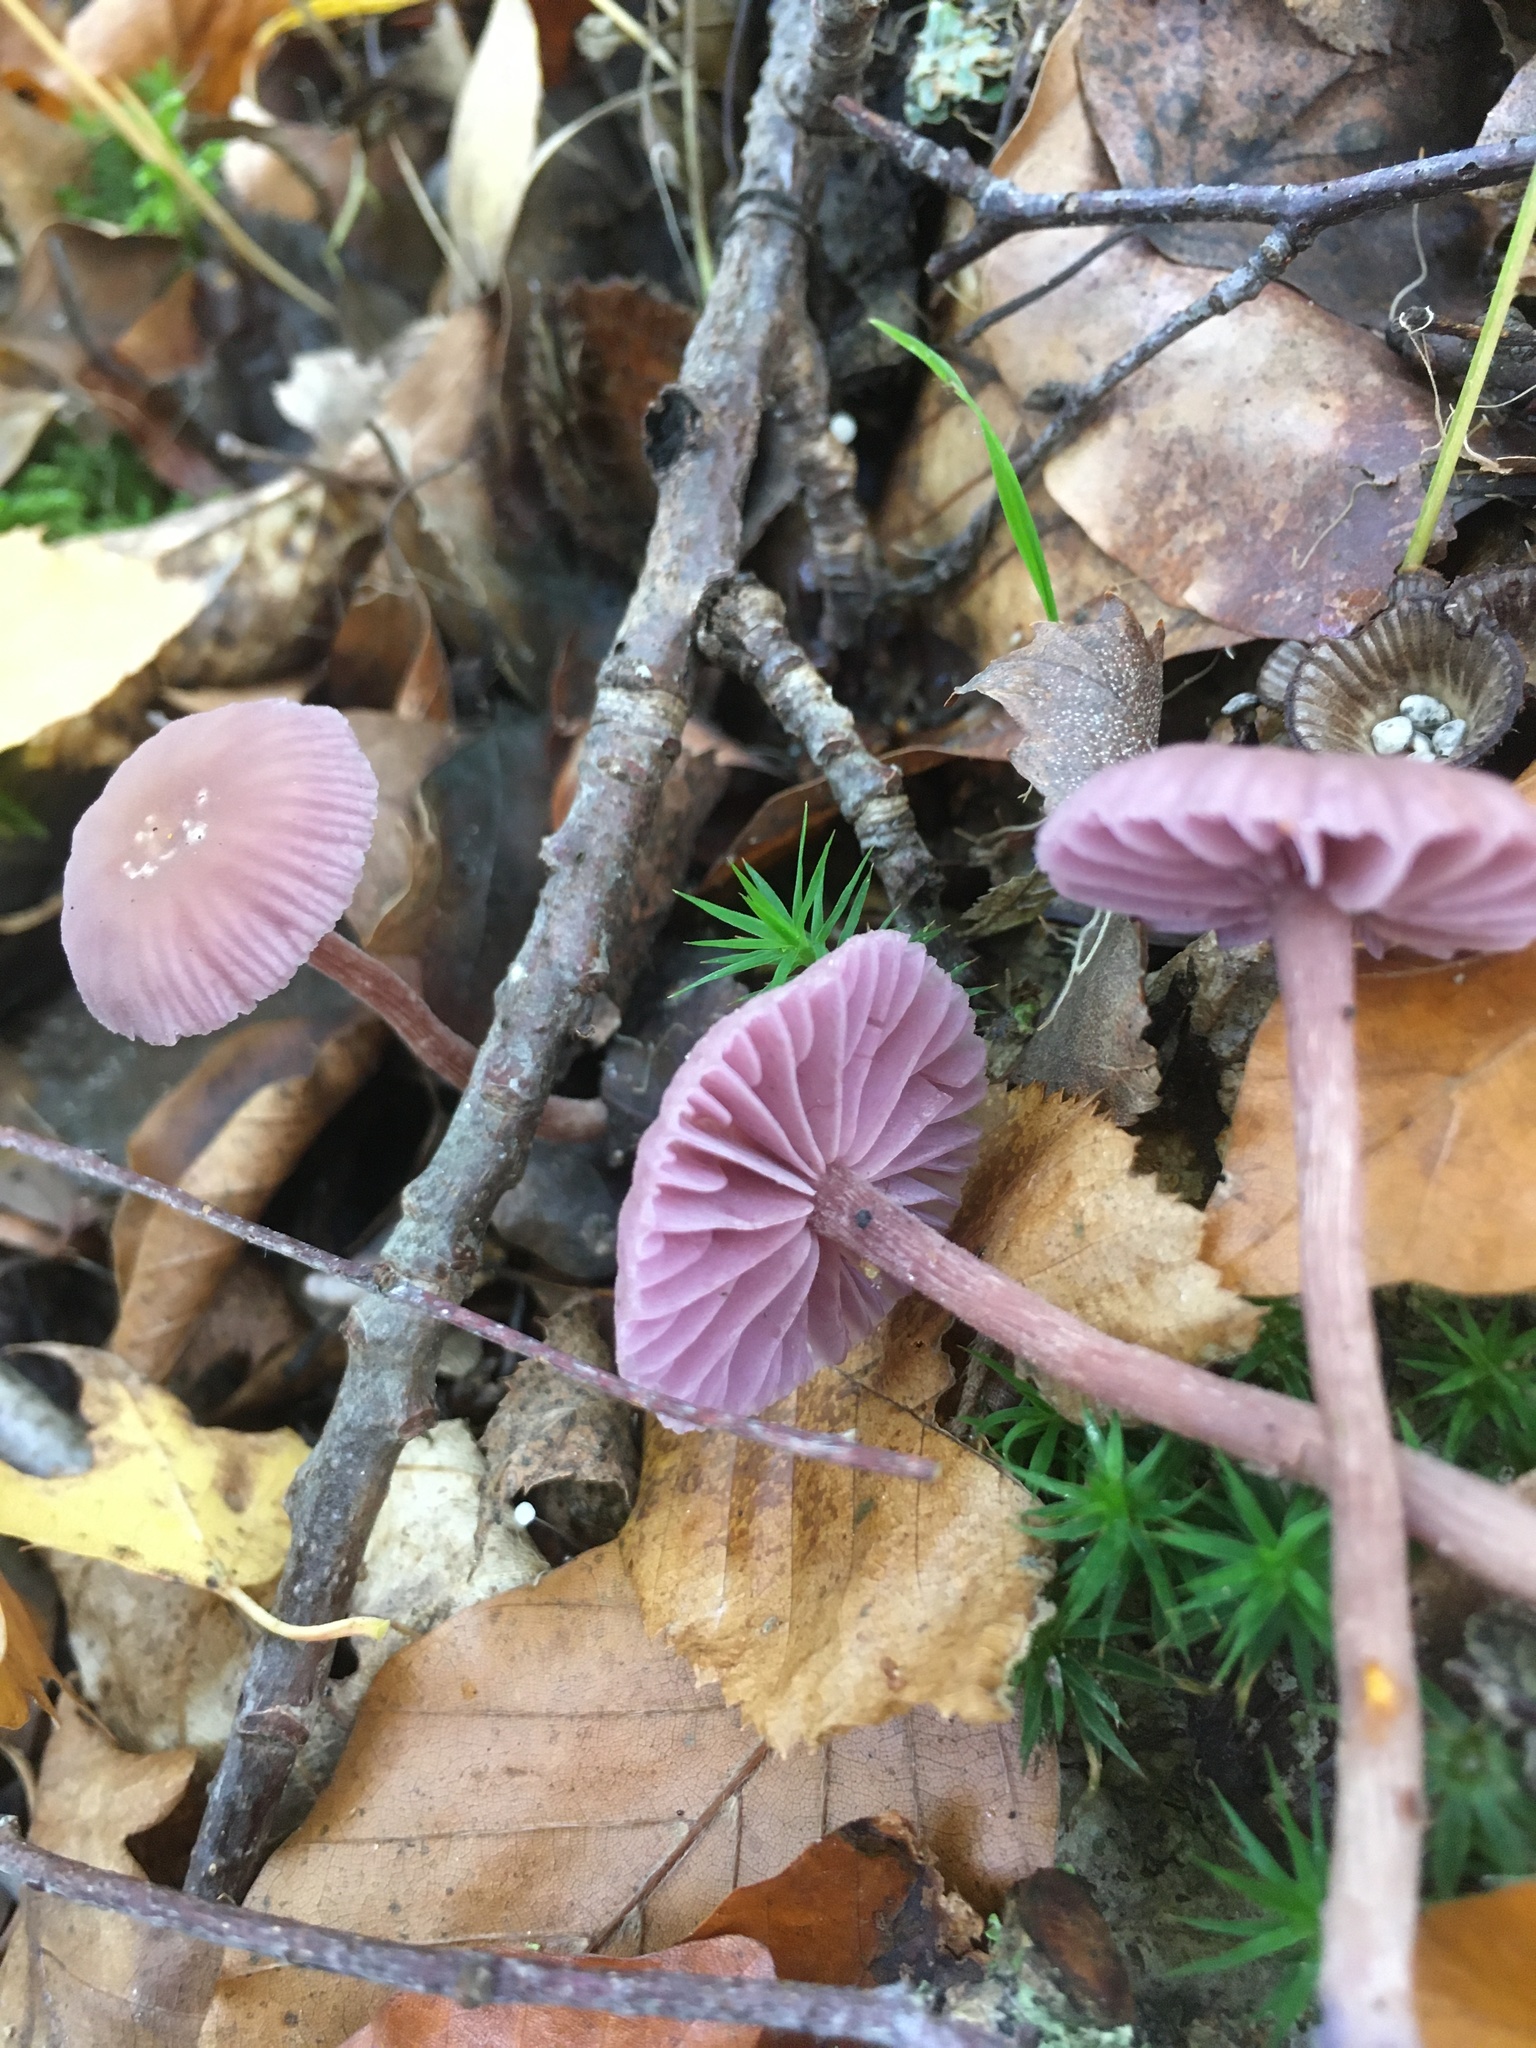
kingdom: Fungi
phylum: Basidiomycota
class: Agaricomycetes
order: Agaricales
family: Hydnangiaceae
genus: Laccaria
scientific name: Laccaria amethystina
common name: Amethyst deceiver
